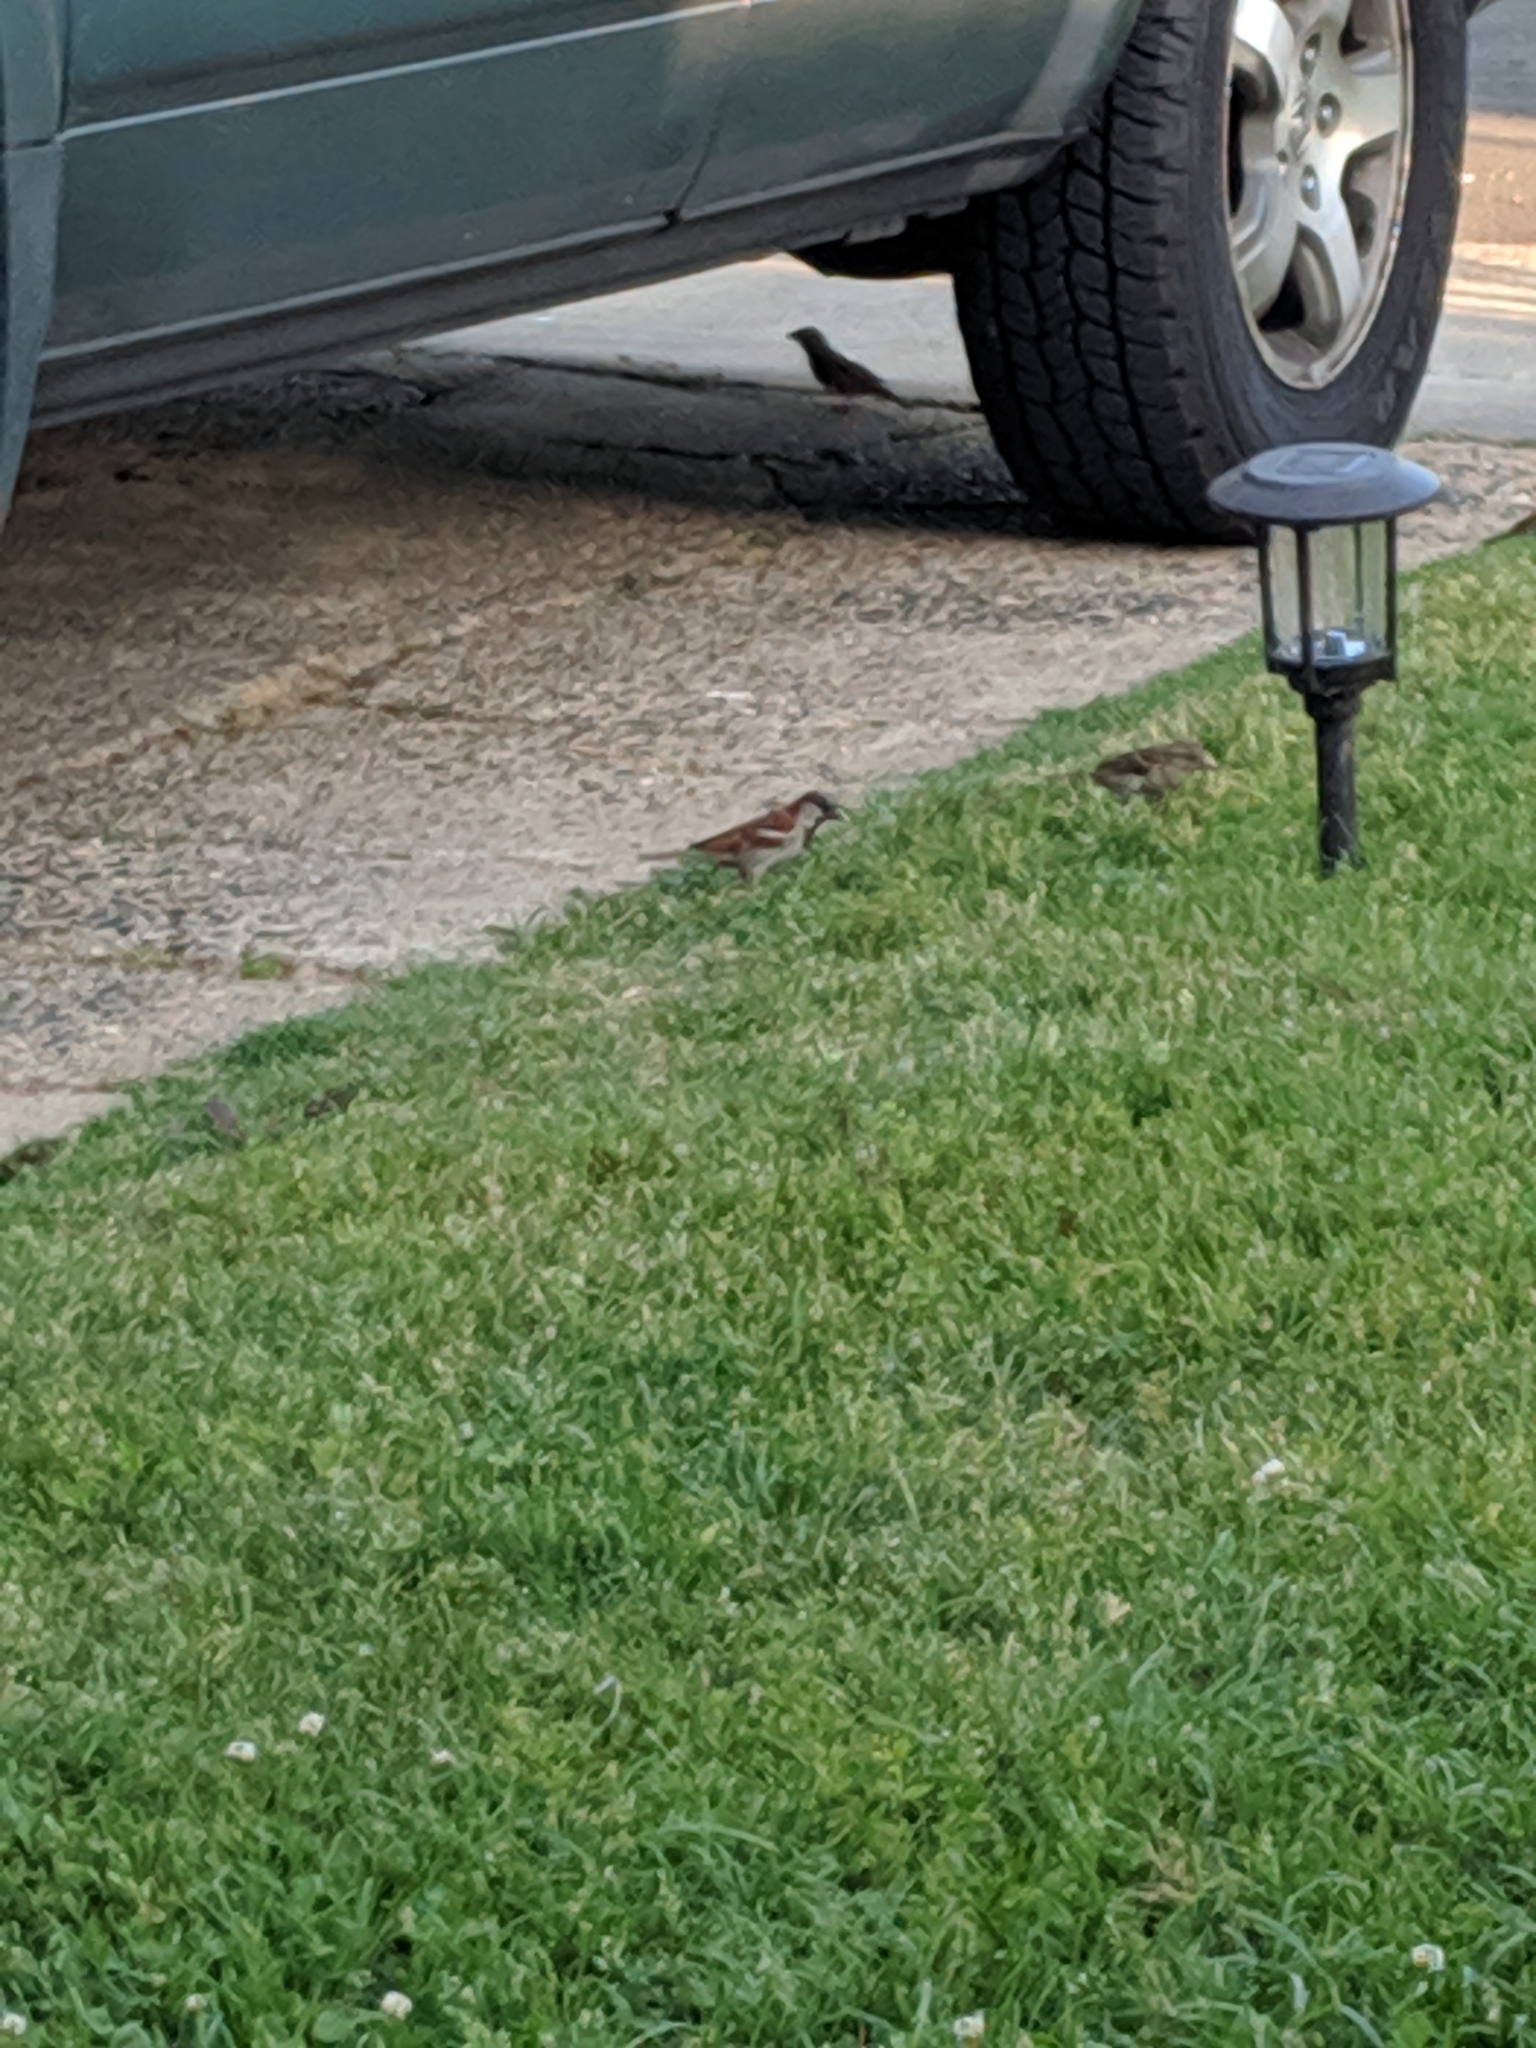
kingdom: Animalia
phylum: Chordata
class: Aves
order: Passeriformes
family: Passeridae
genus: Passer
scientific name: Passer domesticus
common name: House sparrow
